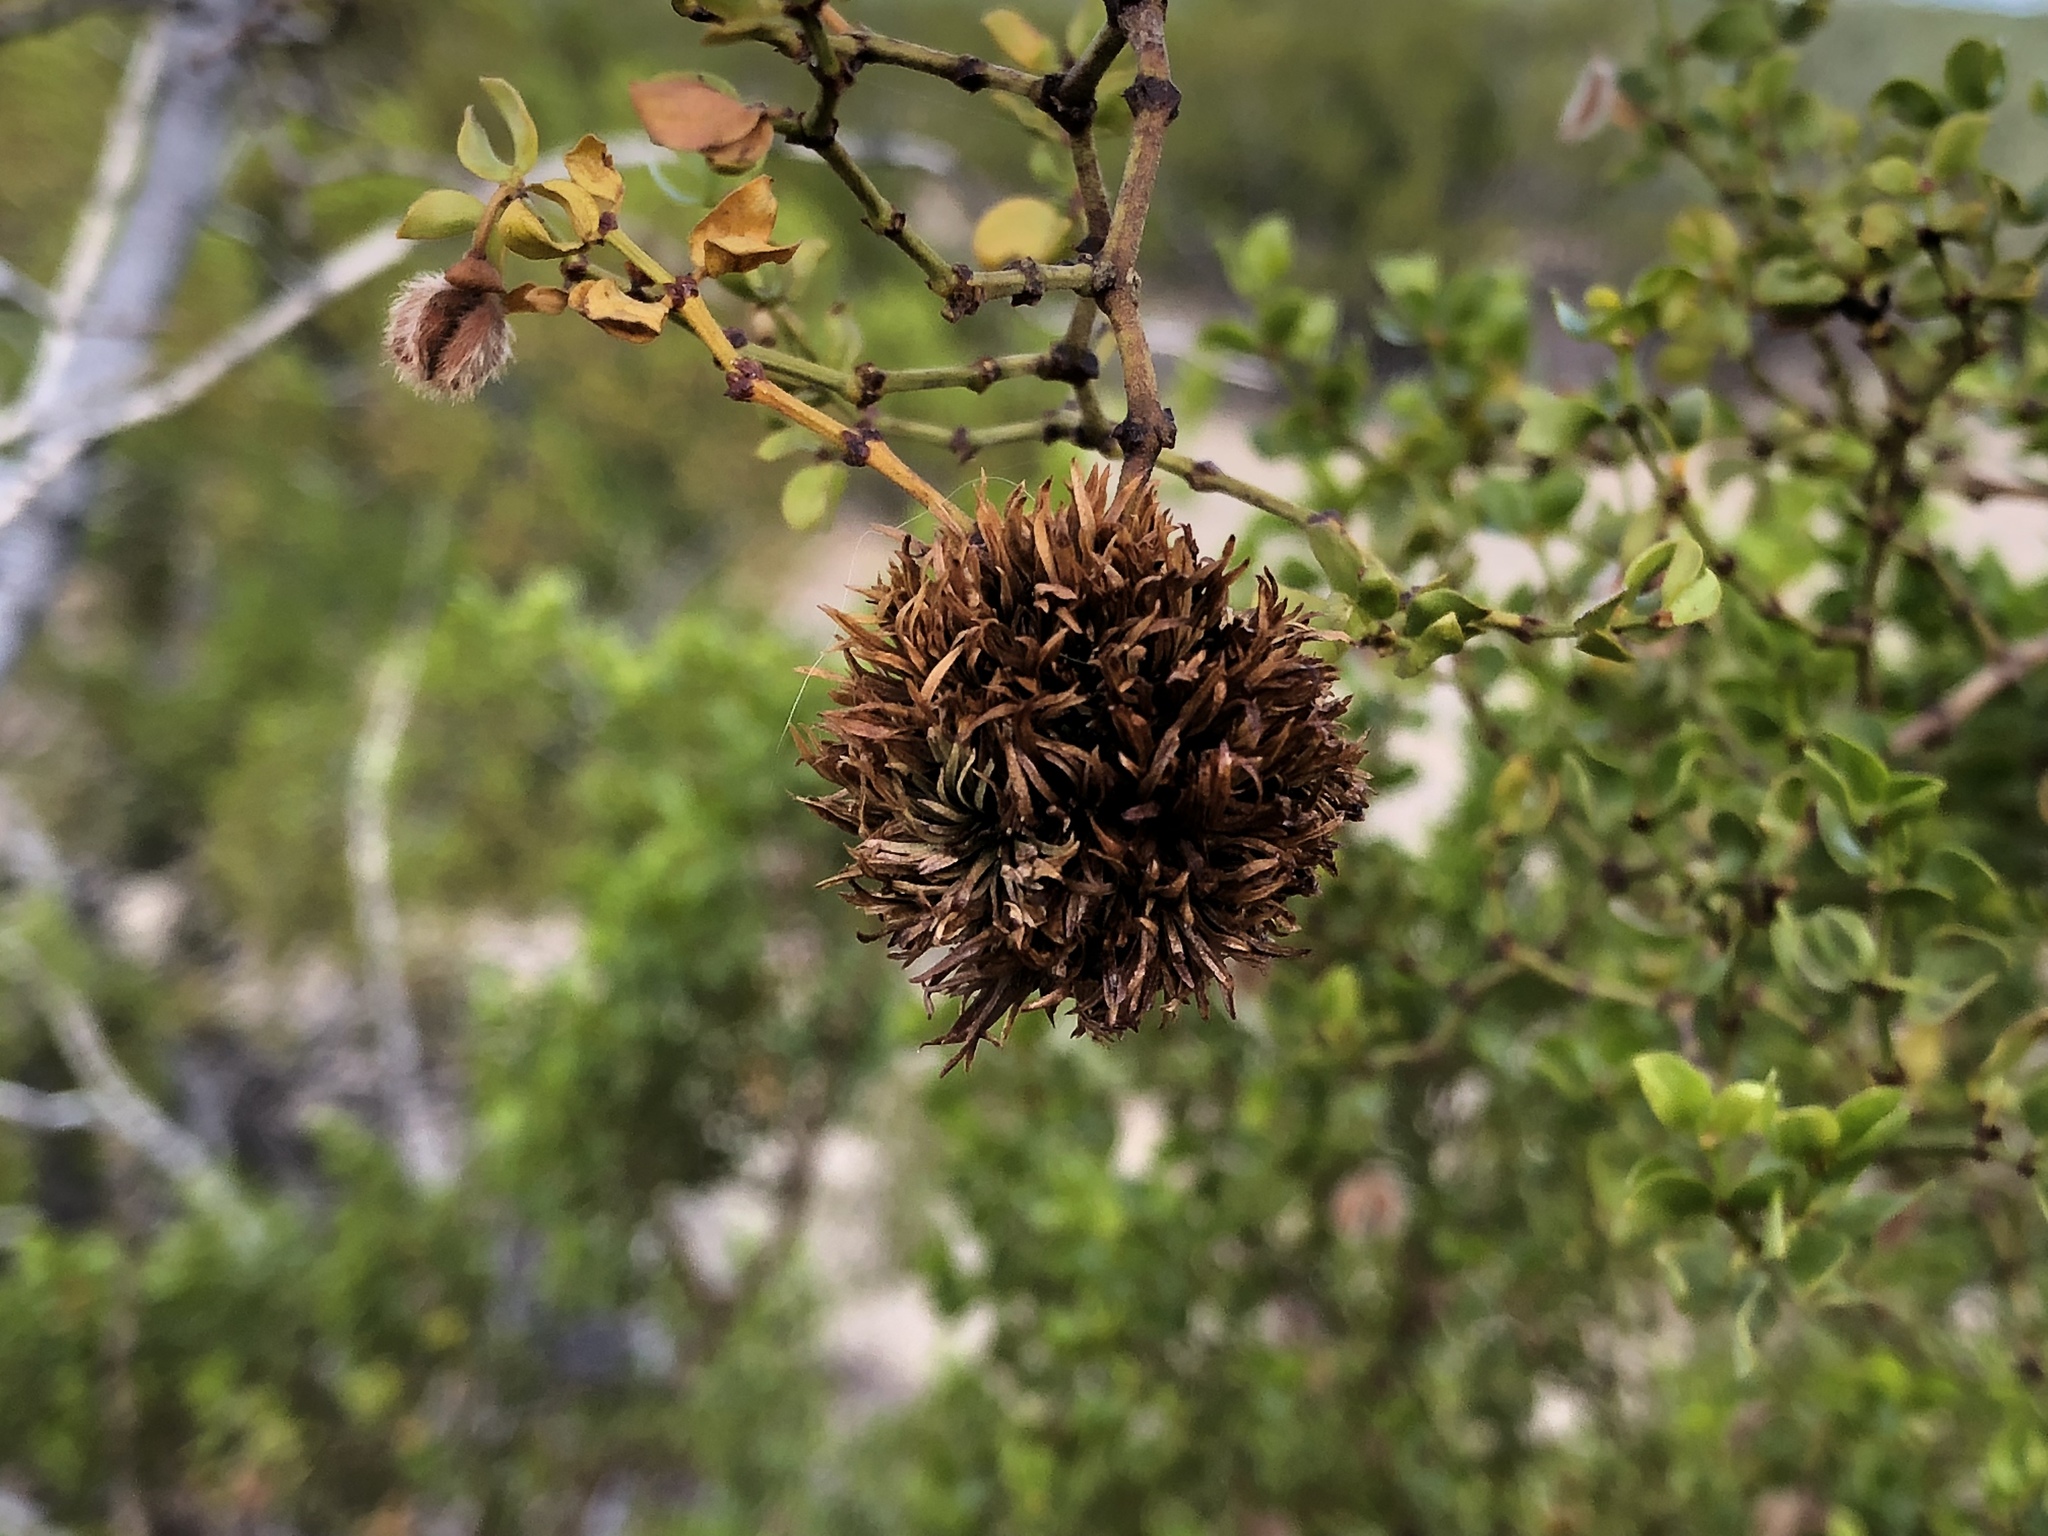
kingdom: Animalia
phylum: Arthropoda
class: Insecta
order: Diptera
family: Cecidomyiidae
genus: Asphondylia
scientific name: Asphondylia auripila
